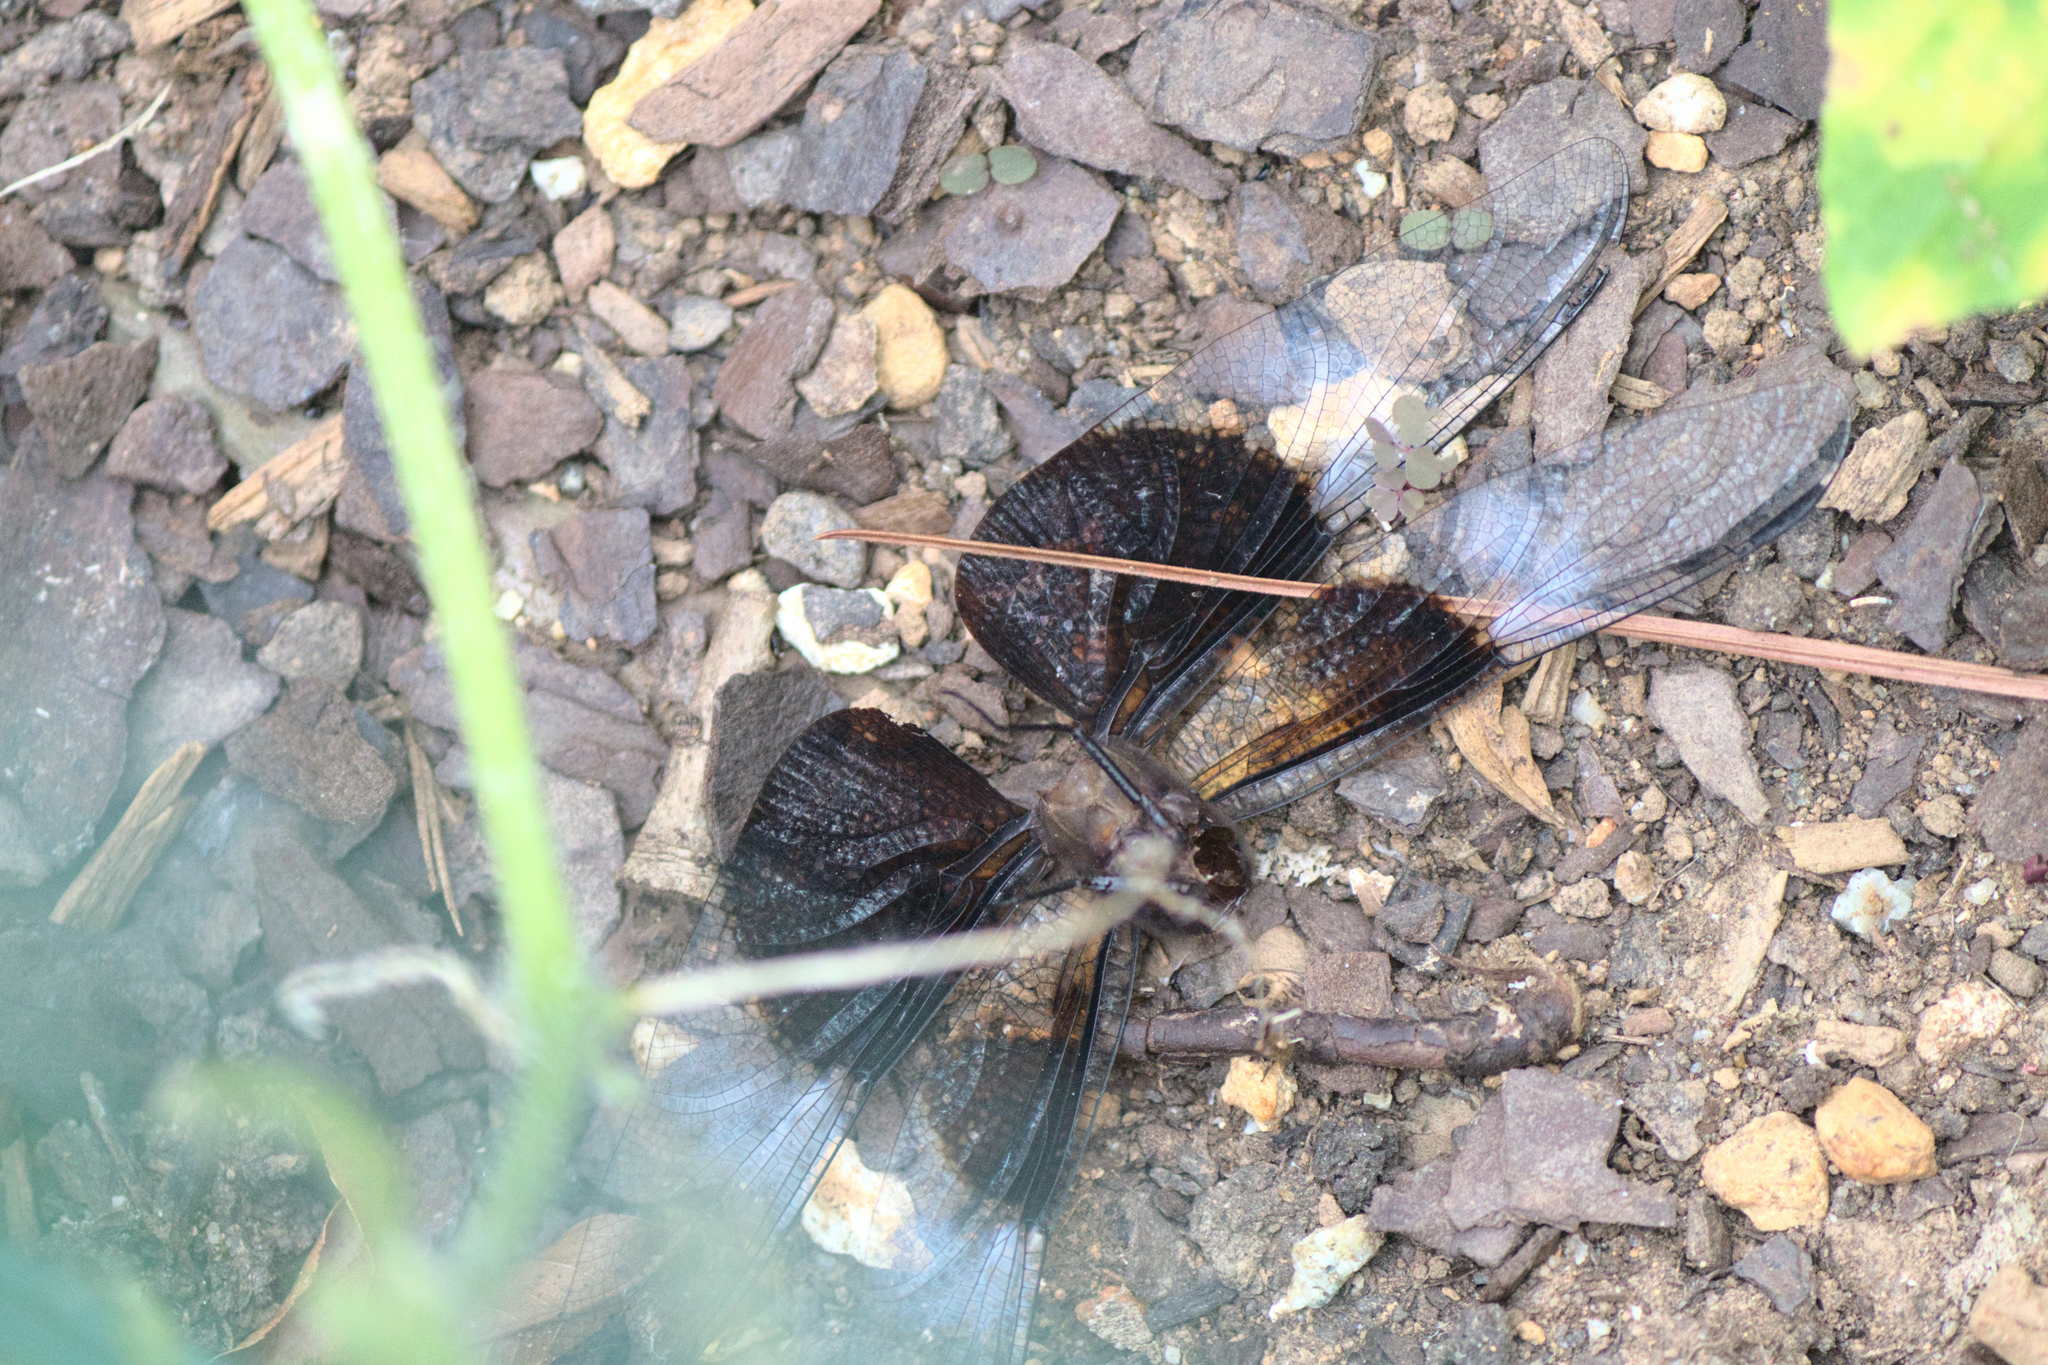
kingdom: Animalia
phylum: Arthropoda
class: Insecta
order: Odonata
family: Libellulidae
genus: Libellula
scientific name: Libellula luctuosa
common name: Widow skimmer
